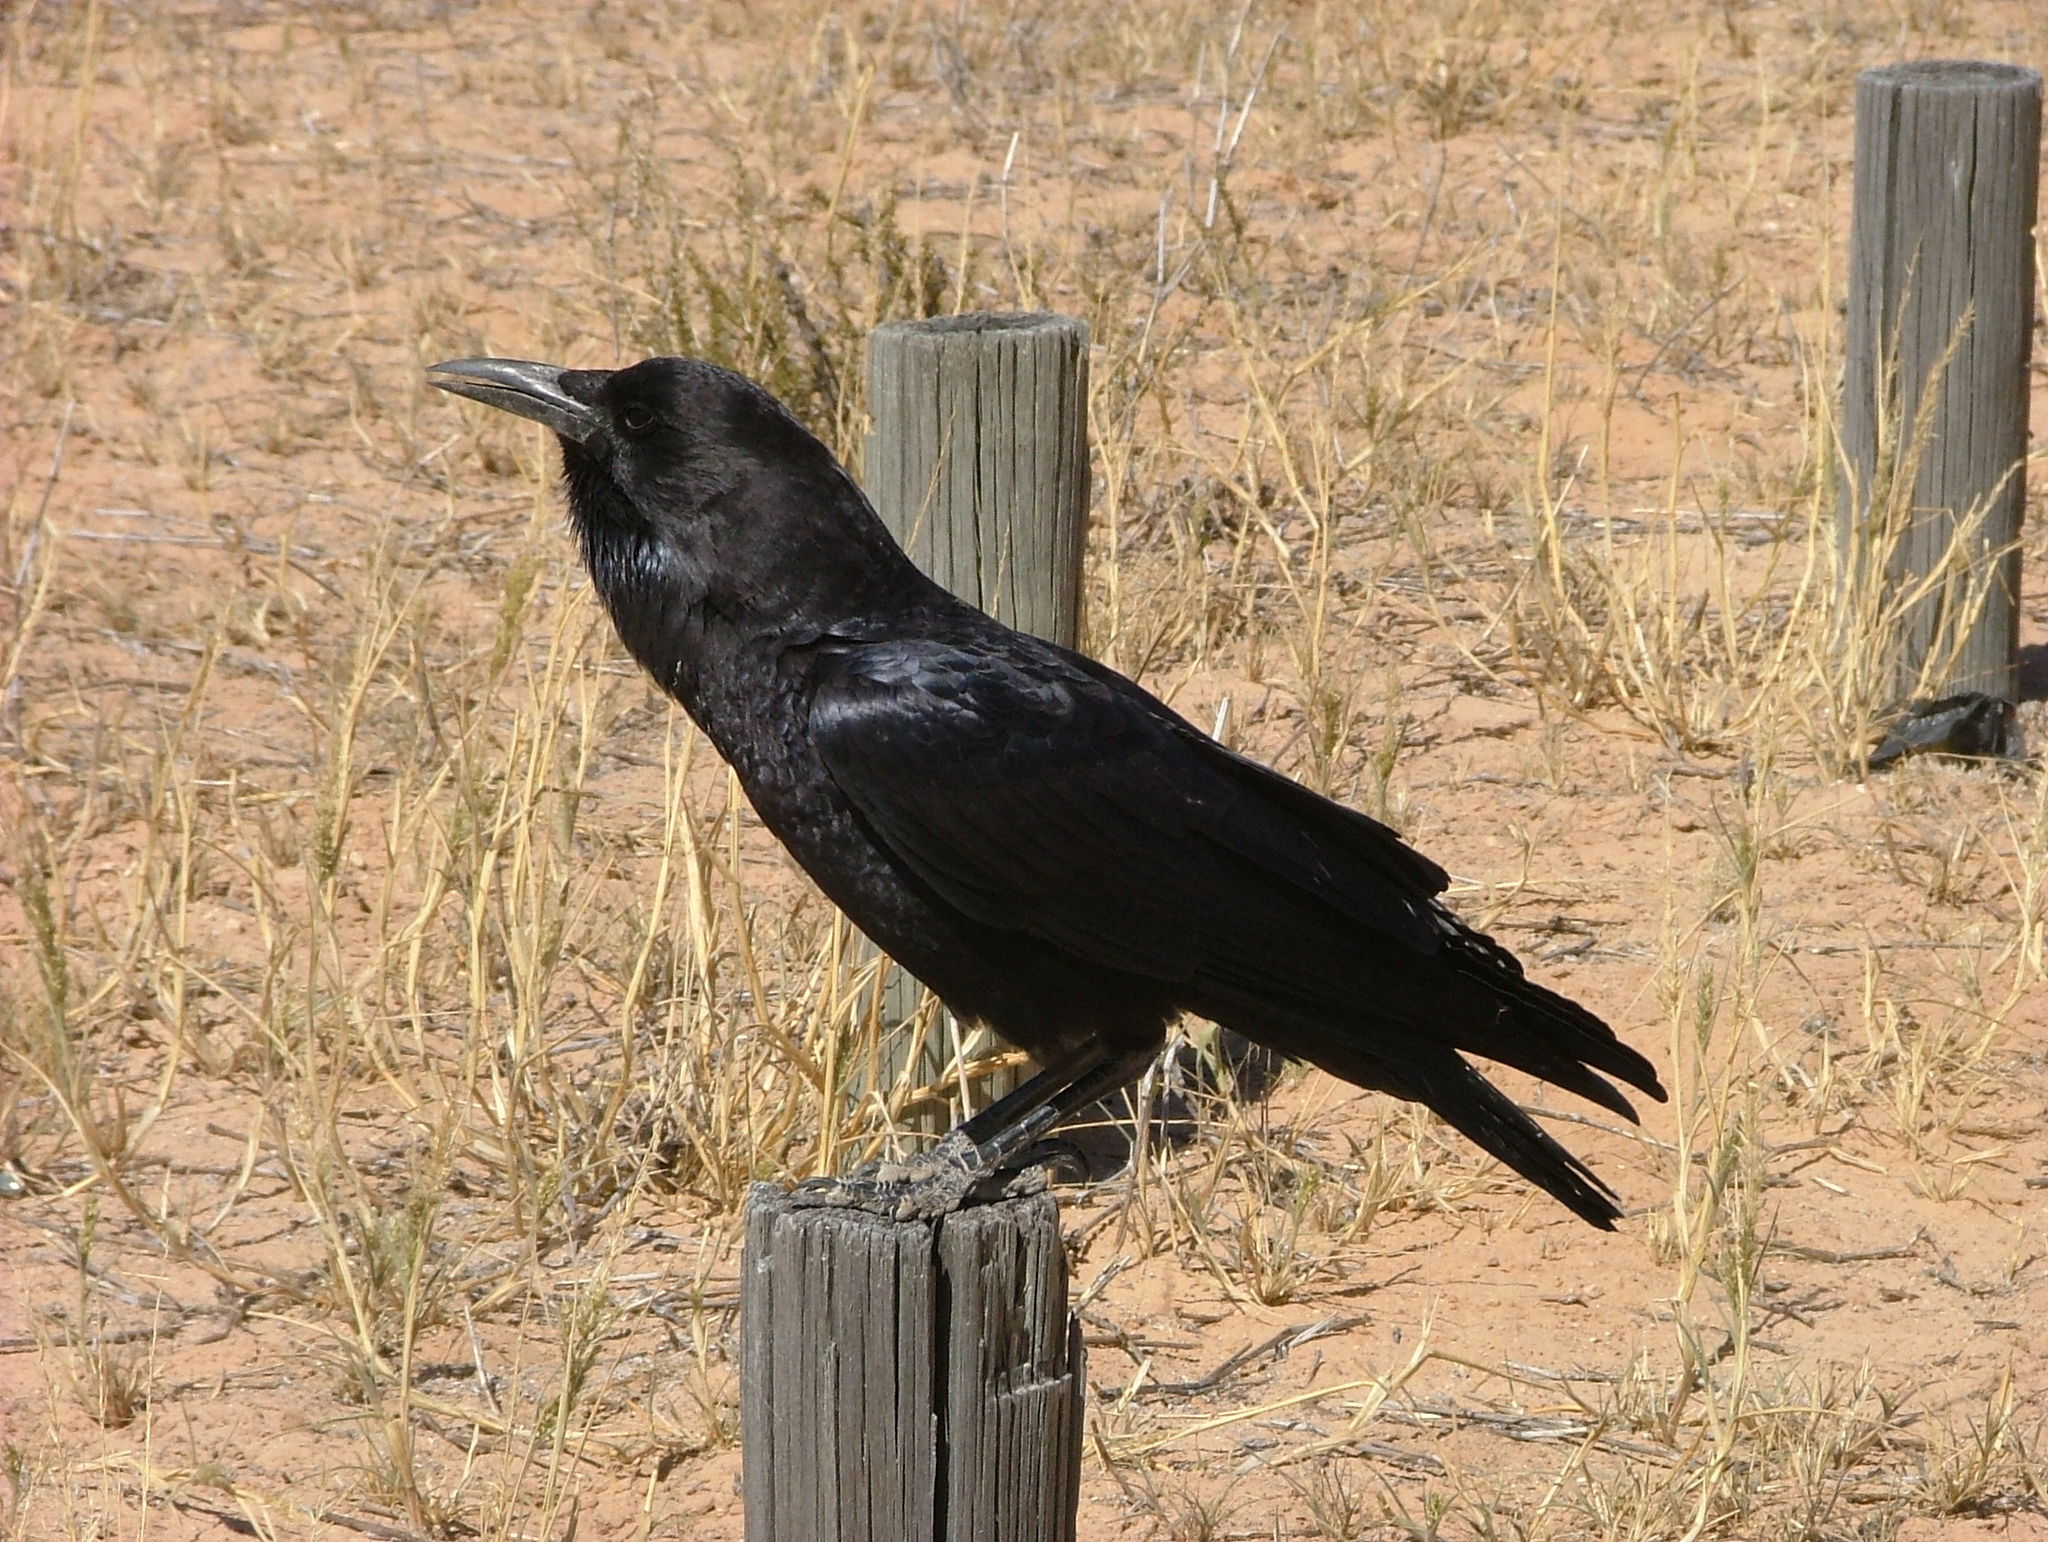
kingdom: Animalia
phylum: Chordata
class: Aves
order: Passeriformes
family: Corvidae
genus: Corvus
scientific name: Corvus capensis
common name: Cape crow
